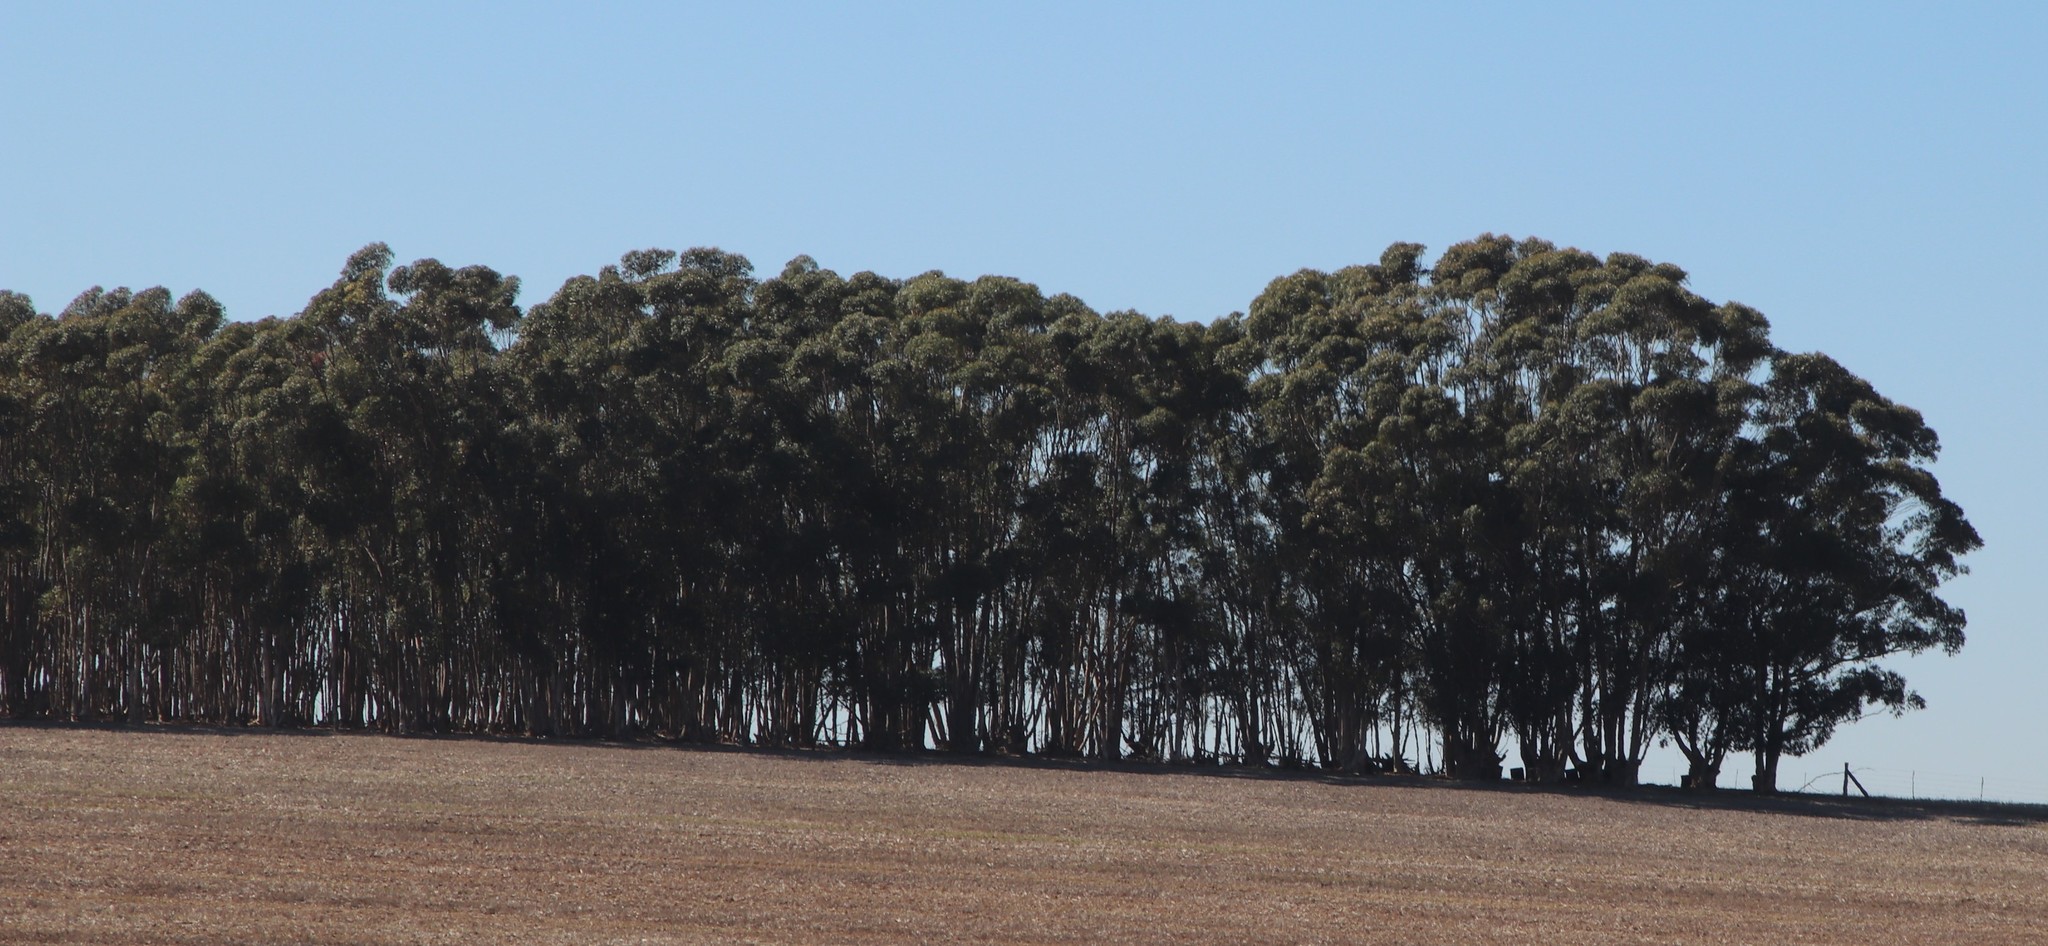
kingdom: Plantae
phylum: Tracheophyta
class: Magnoliopsida
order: Myrtales
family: Myrtaceae
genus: Eucalyptus
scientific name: Eucalyptus cladocalyx
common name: Sugargum
